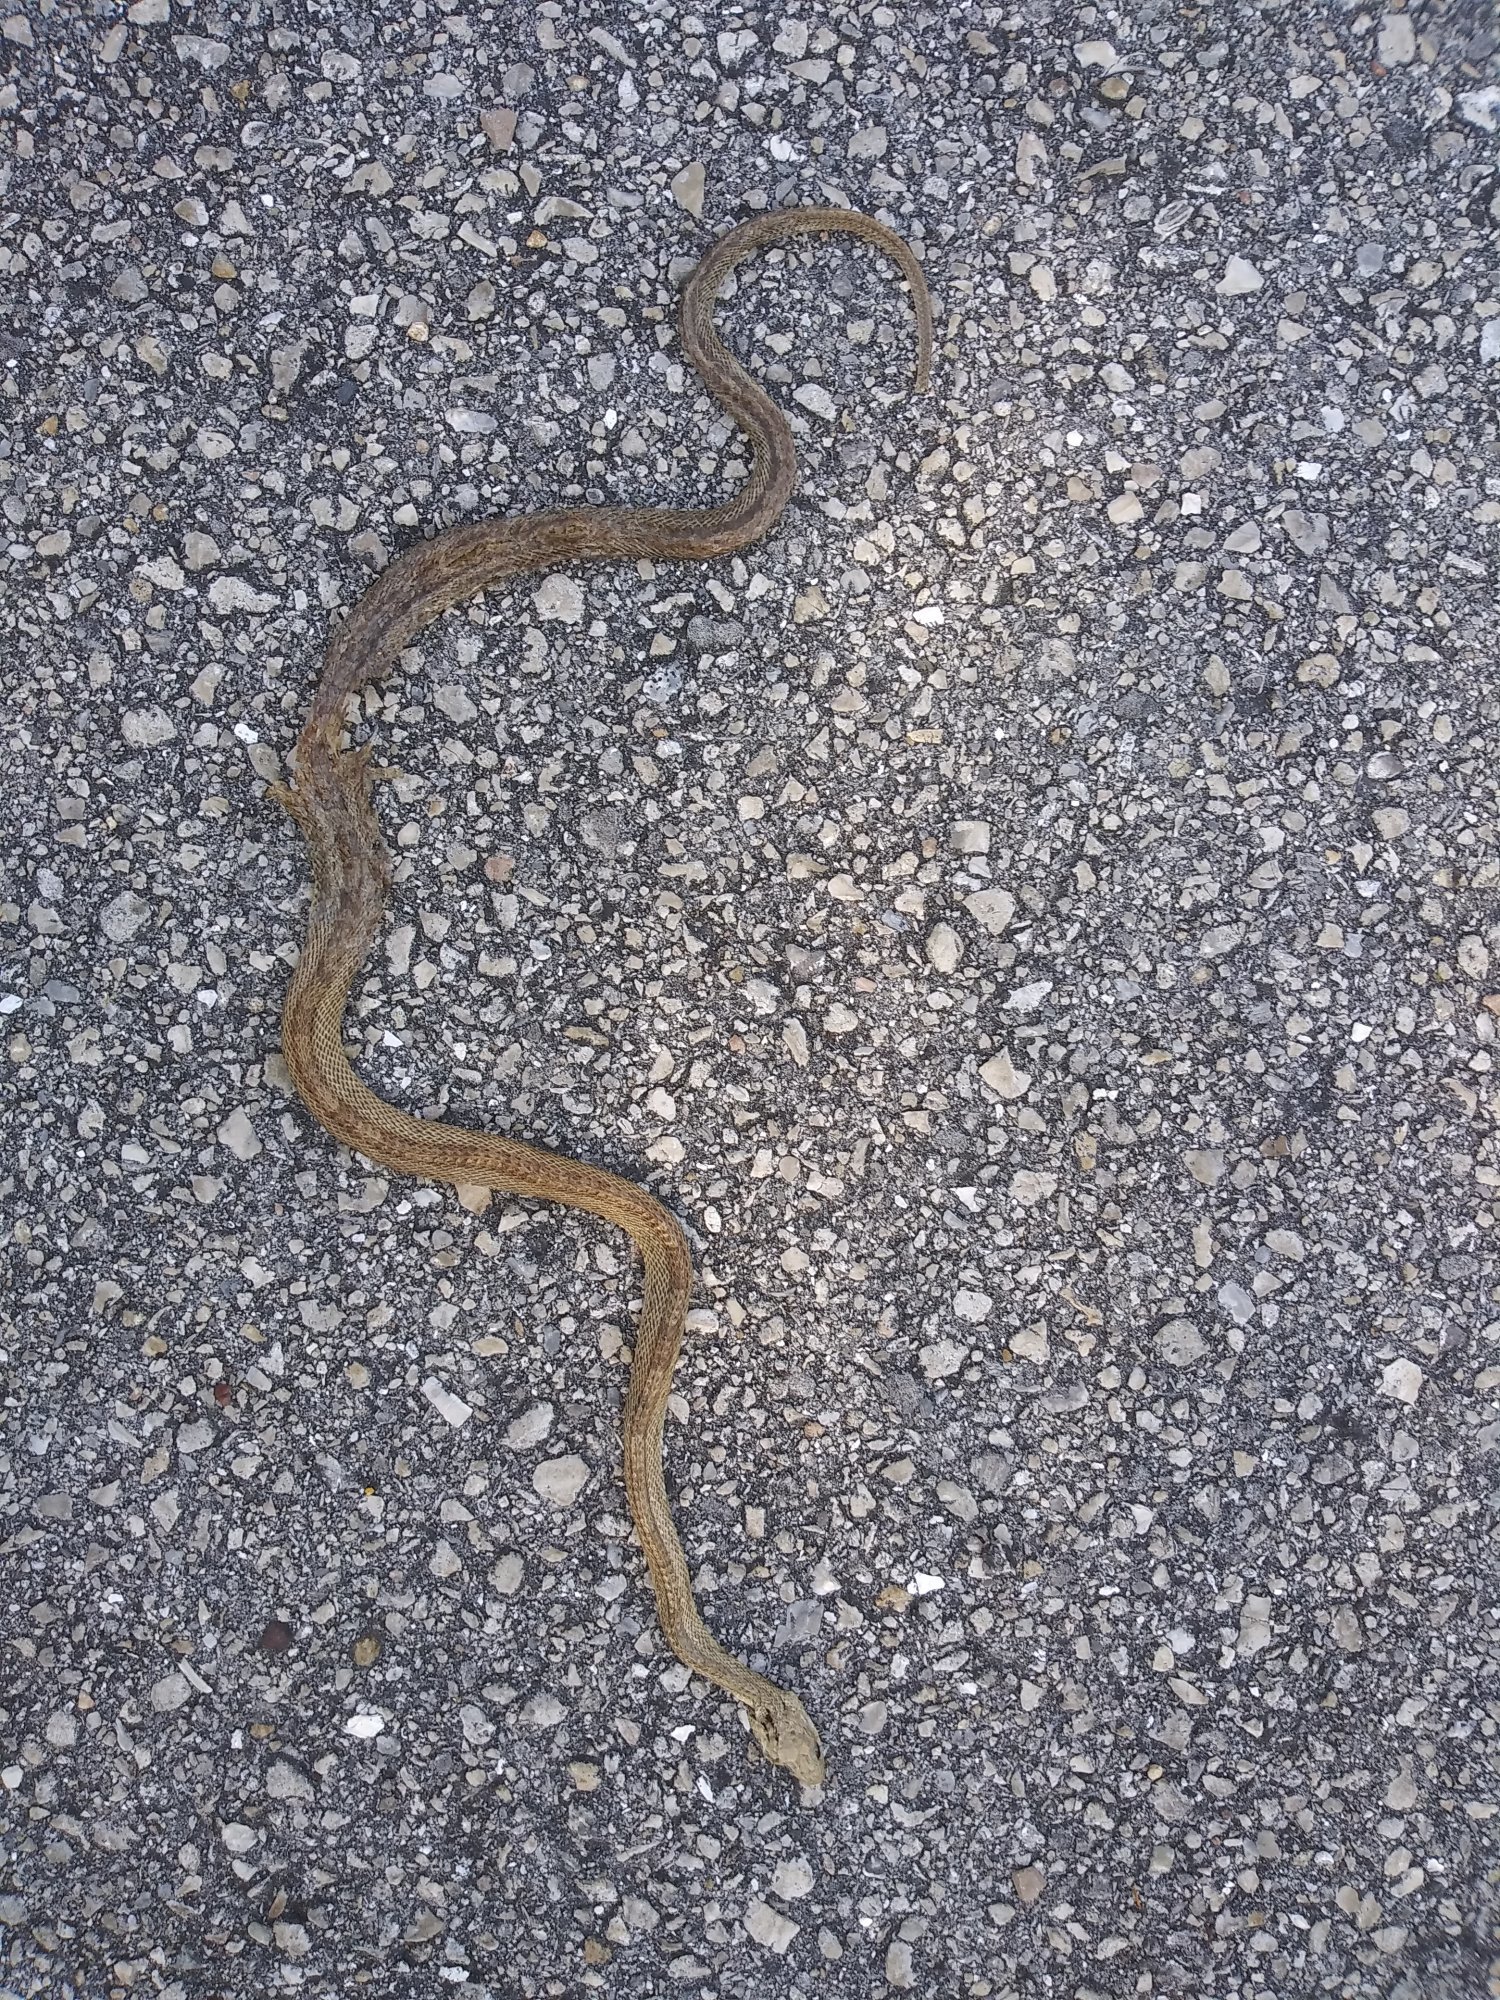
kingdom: Animalia
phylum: Chordata
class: Squamata
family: Colubridae
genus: Pantherophis
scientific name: Pantherophis alleghaniensis
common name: Eastern rat snake
